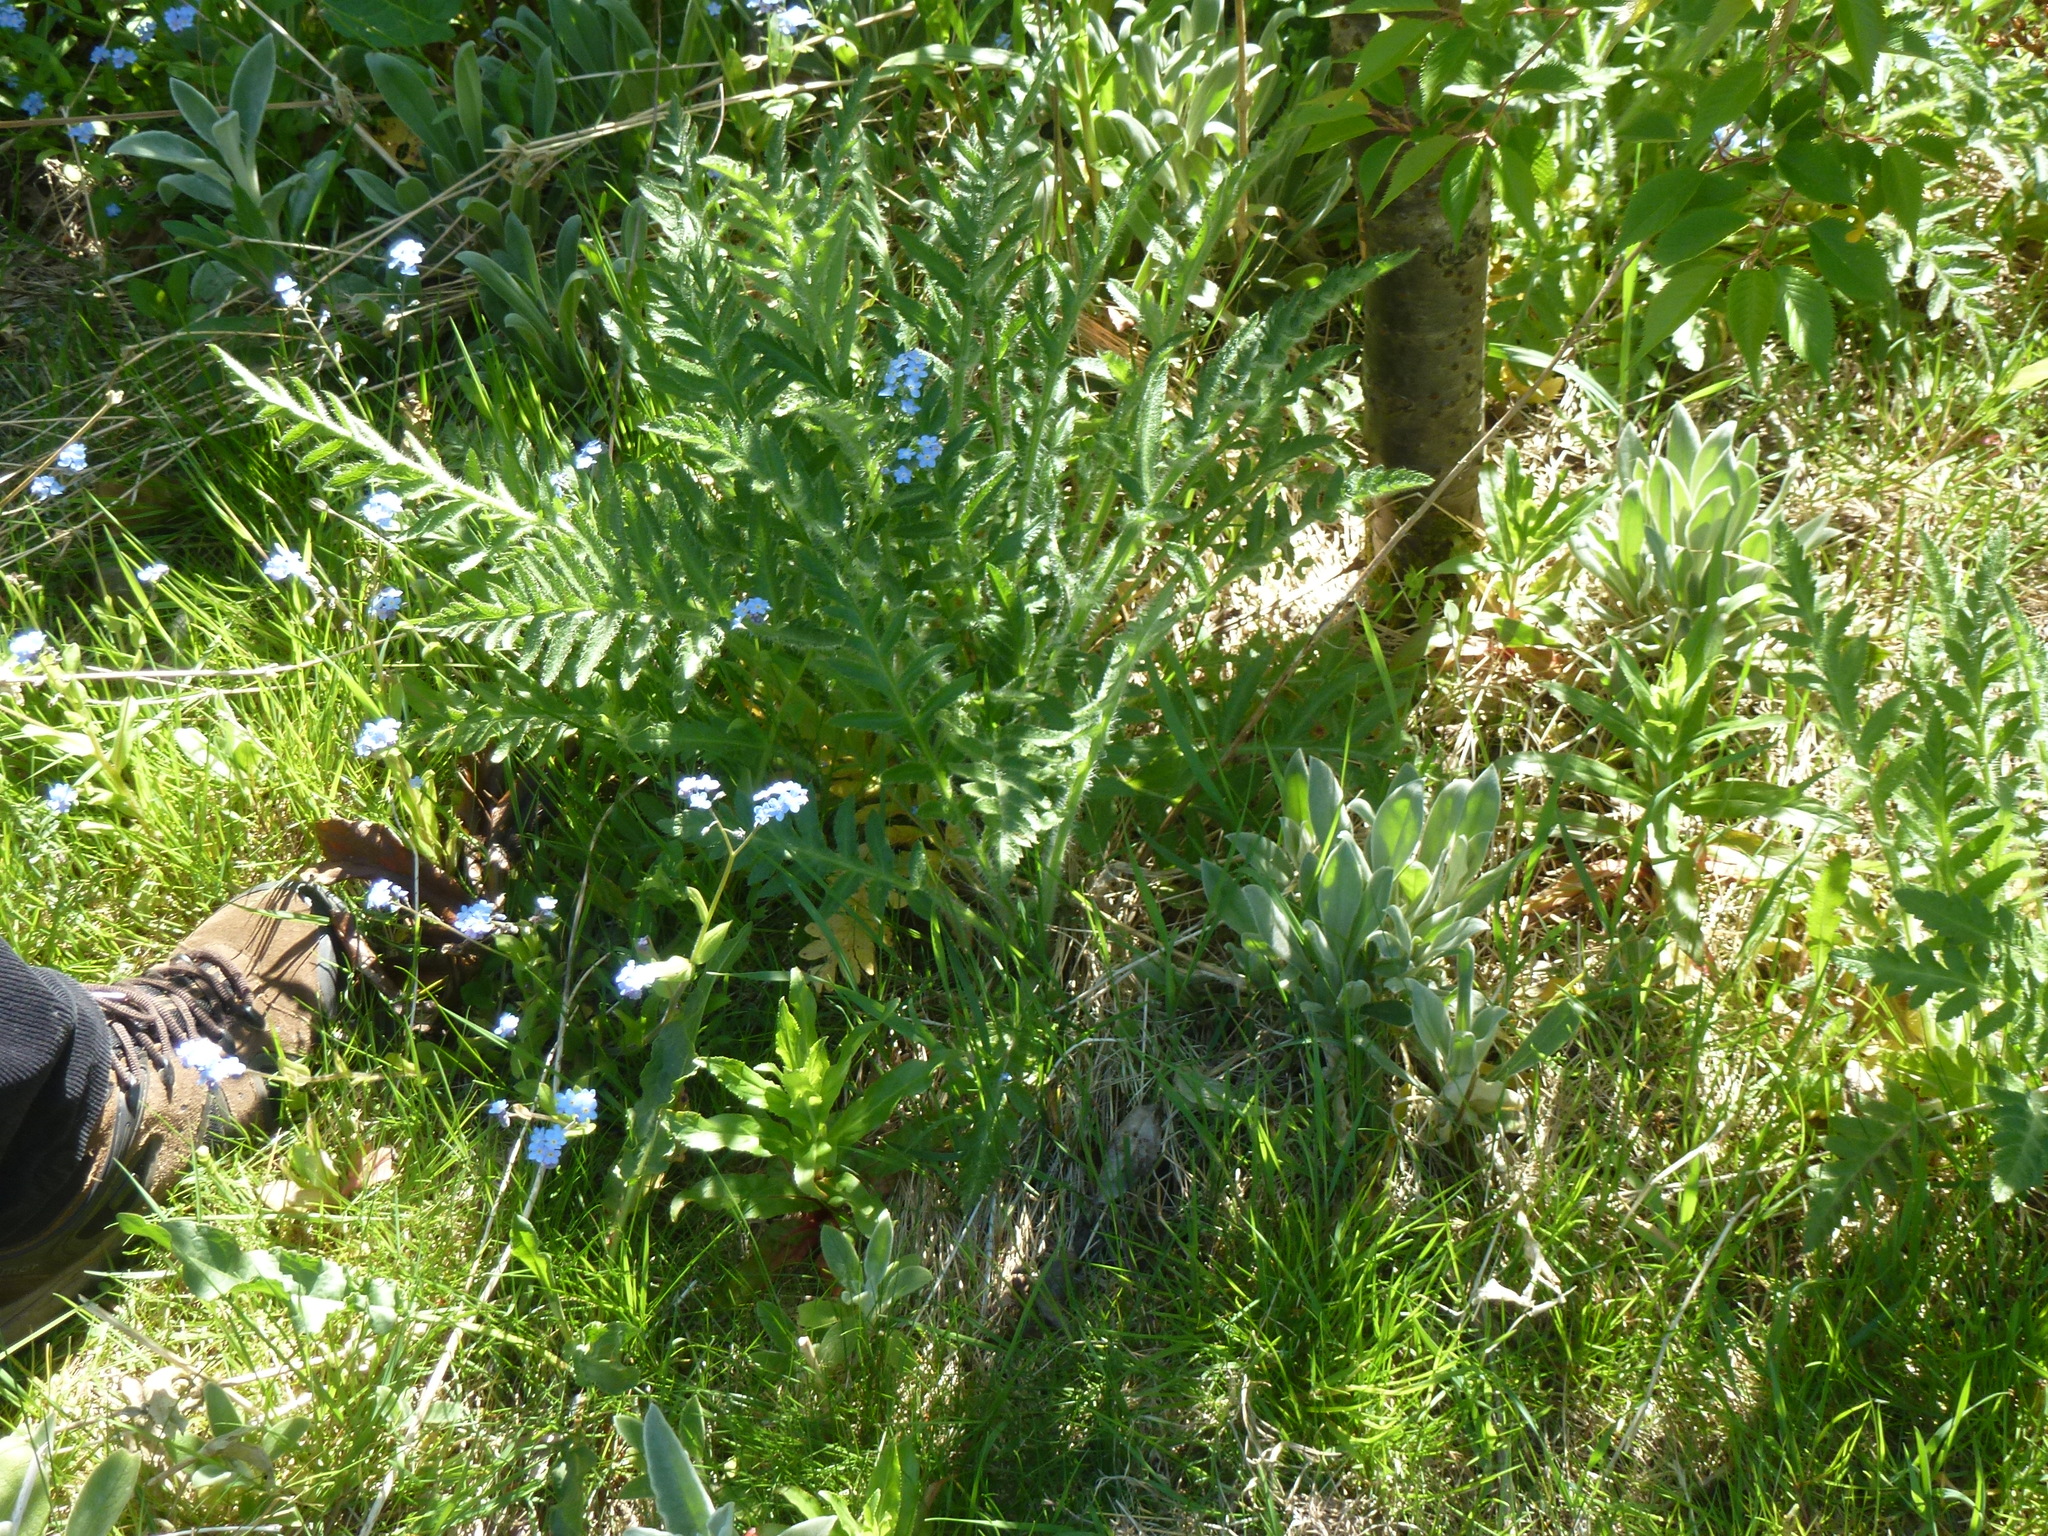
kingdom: Plantae
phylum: Tracheophyta
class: Magnoliopsida
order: Ranunculales
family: Papaveraceae
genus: Papaver
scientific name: Papaver orientale
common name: Oriental poppy
